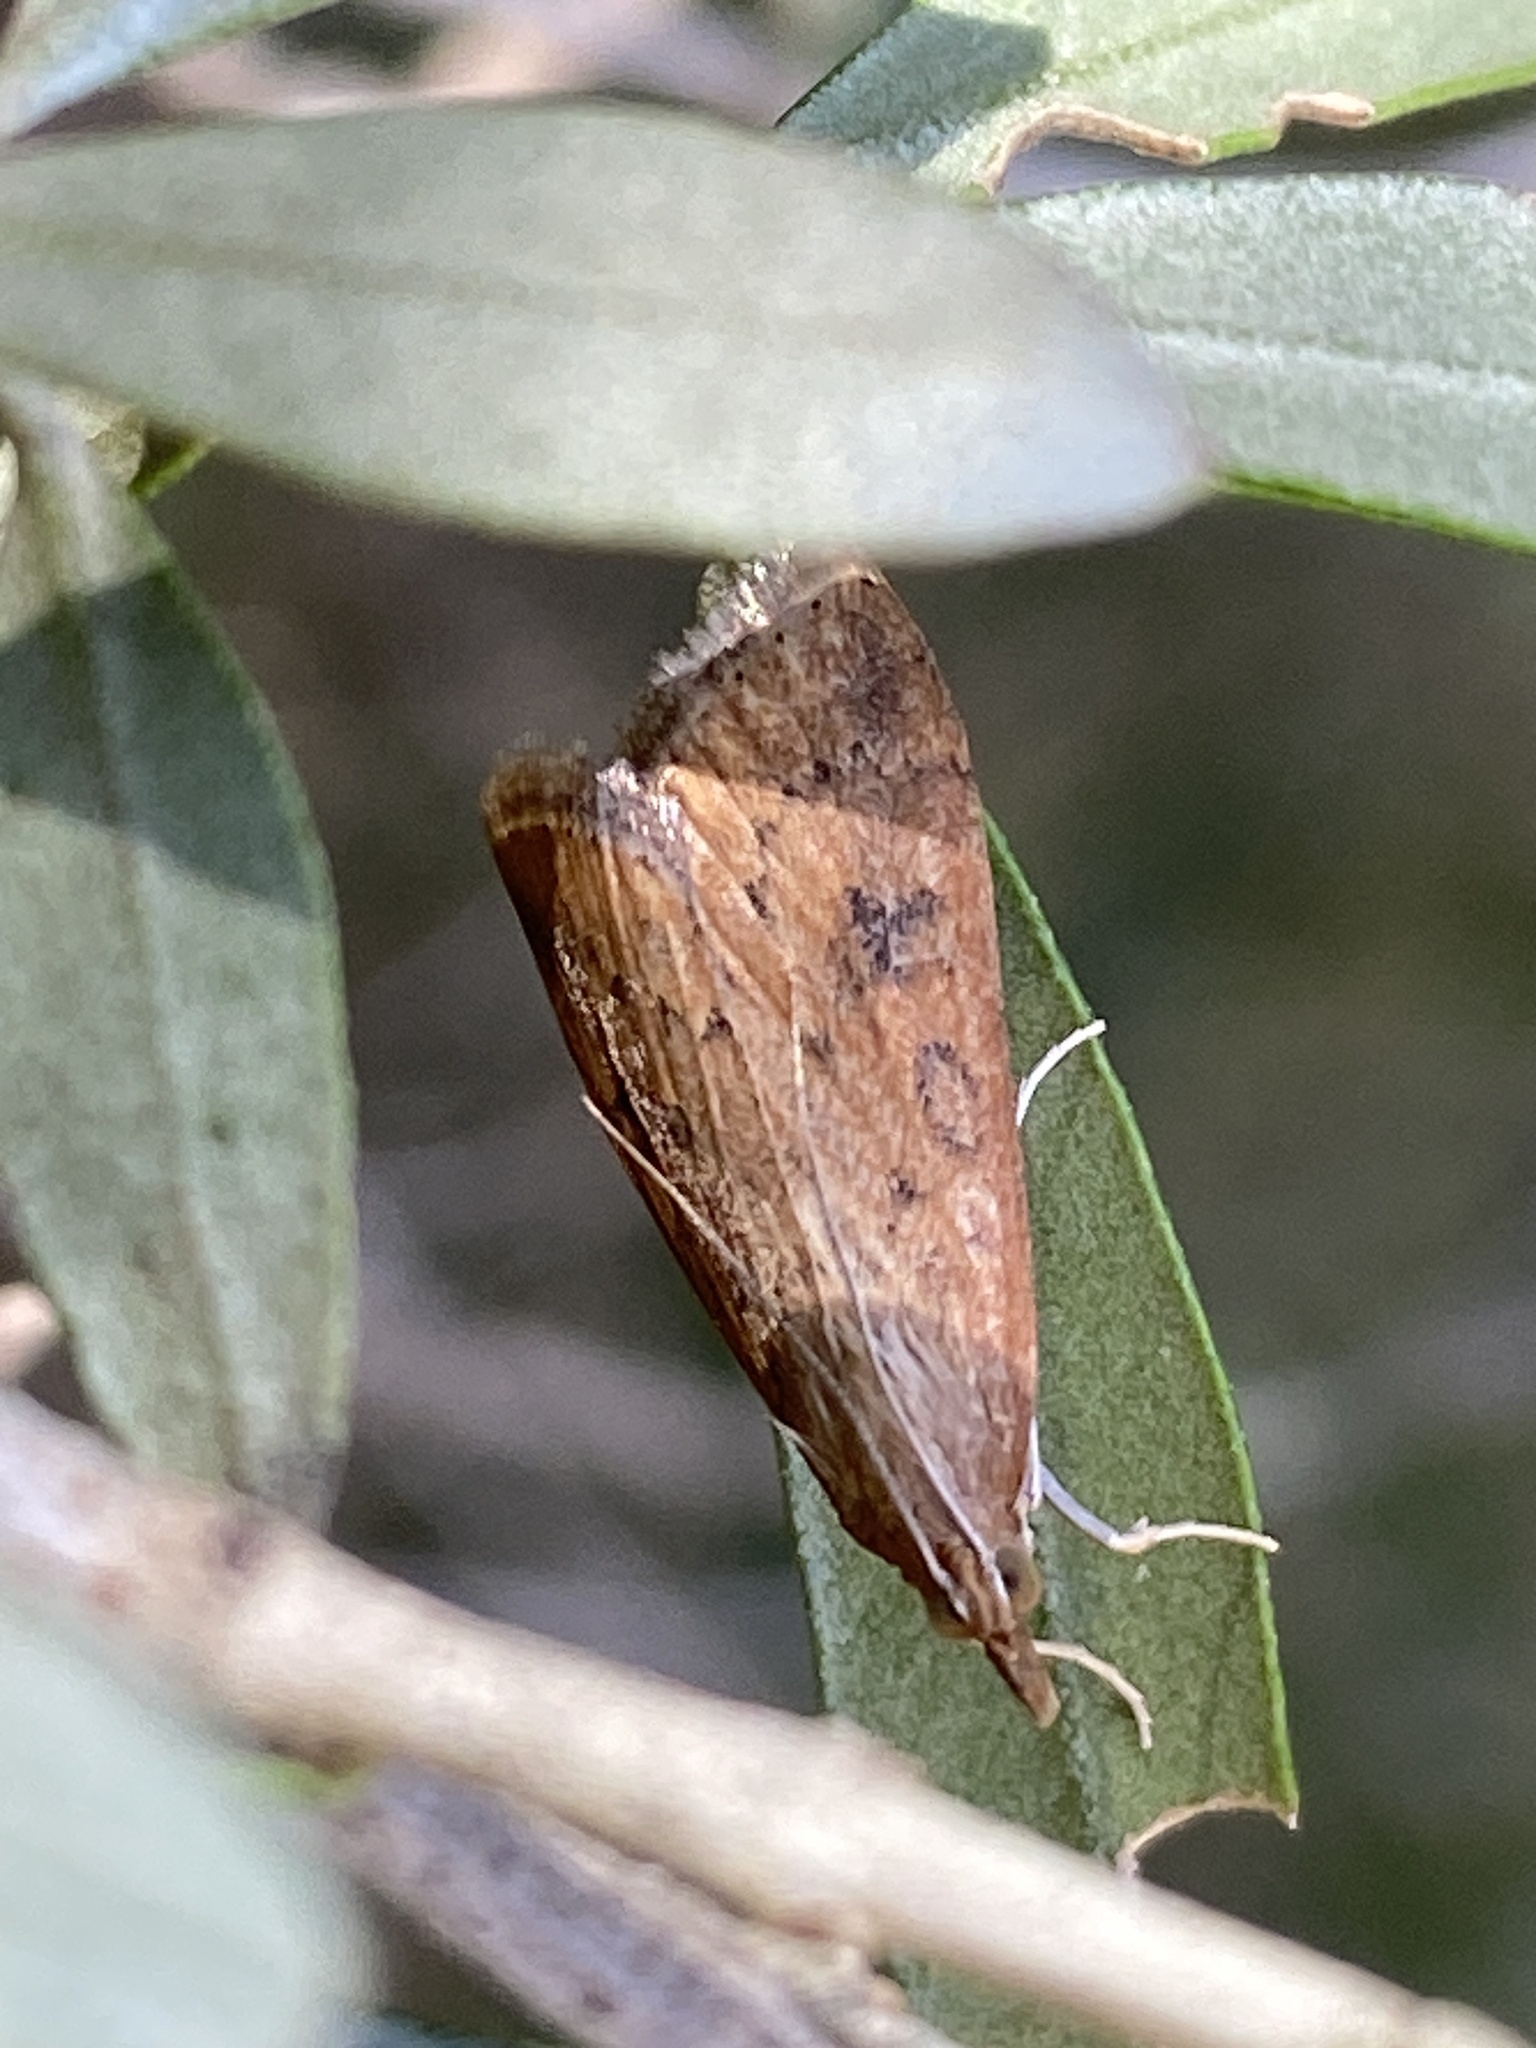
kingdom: Animalia
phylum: Arthropoda
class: Insecta
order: Lepidoptera
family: Crambidae
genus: Udea
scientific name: Udea ferrugalis
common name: Rusty dot
